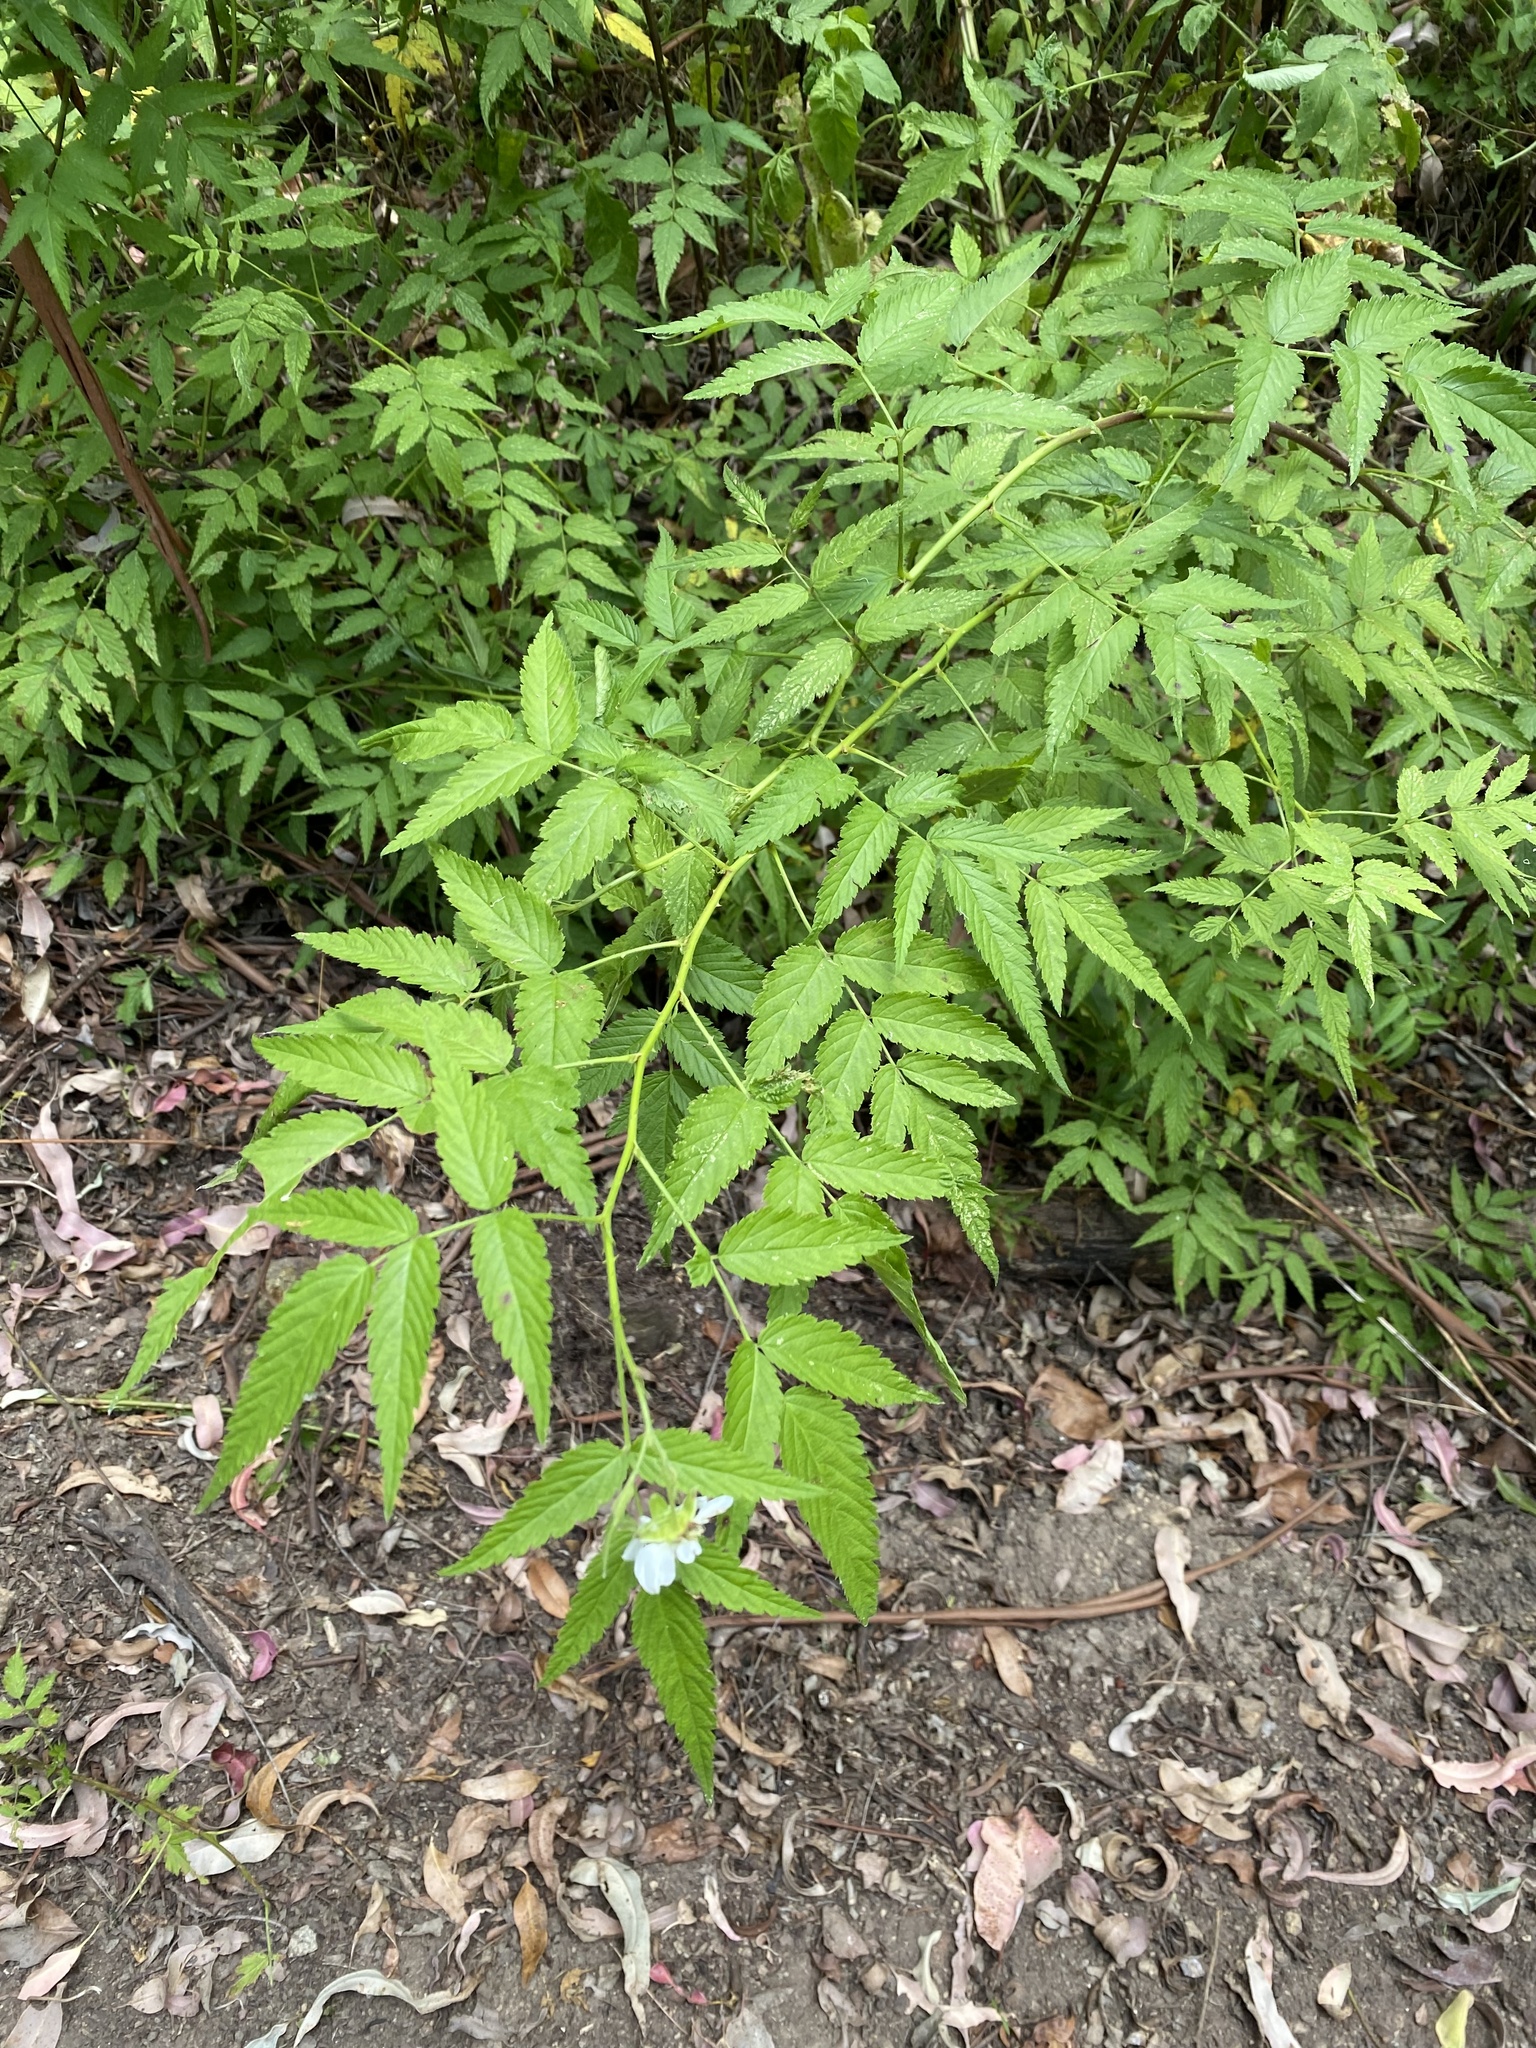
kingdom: Plantae
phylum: Tracheophyta
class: Magnoliopsida
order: Rosales
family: Rosaceae
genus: Rubus
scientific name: Rubus rosifolius
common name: Roseleaf raspberry
